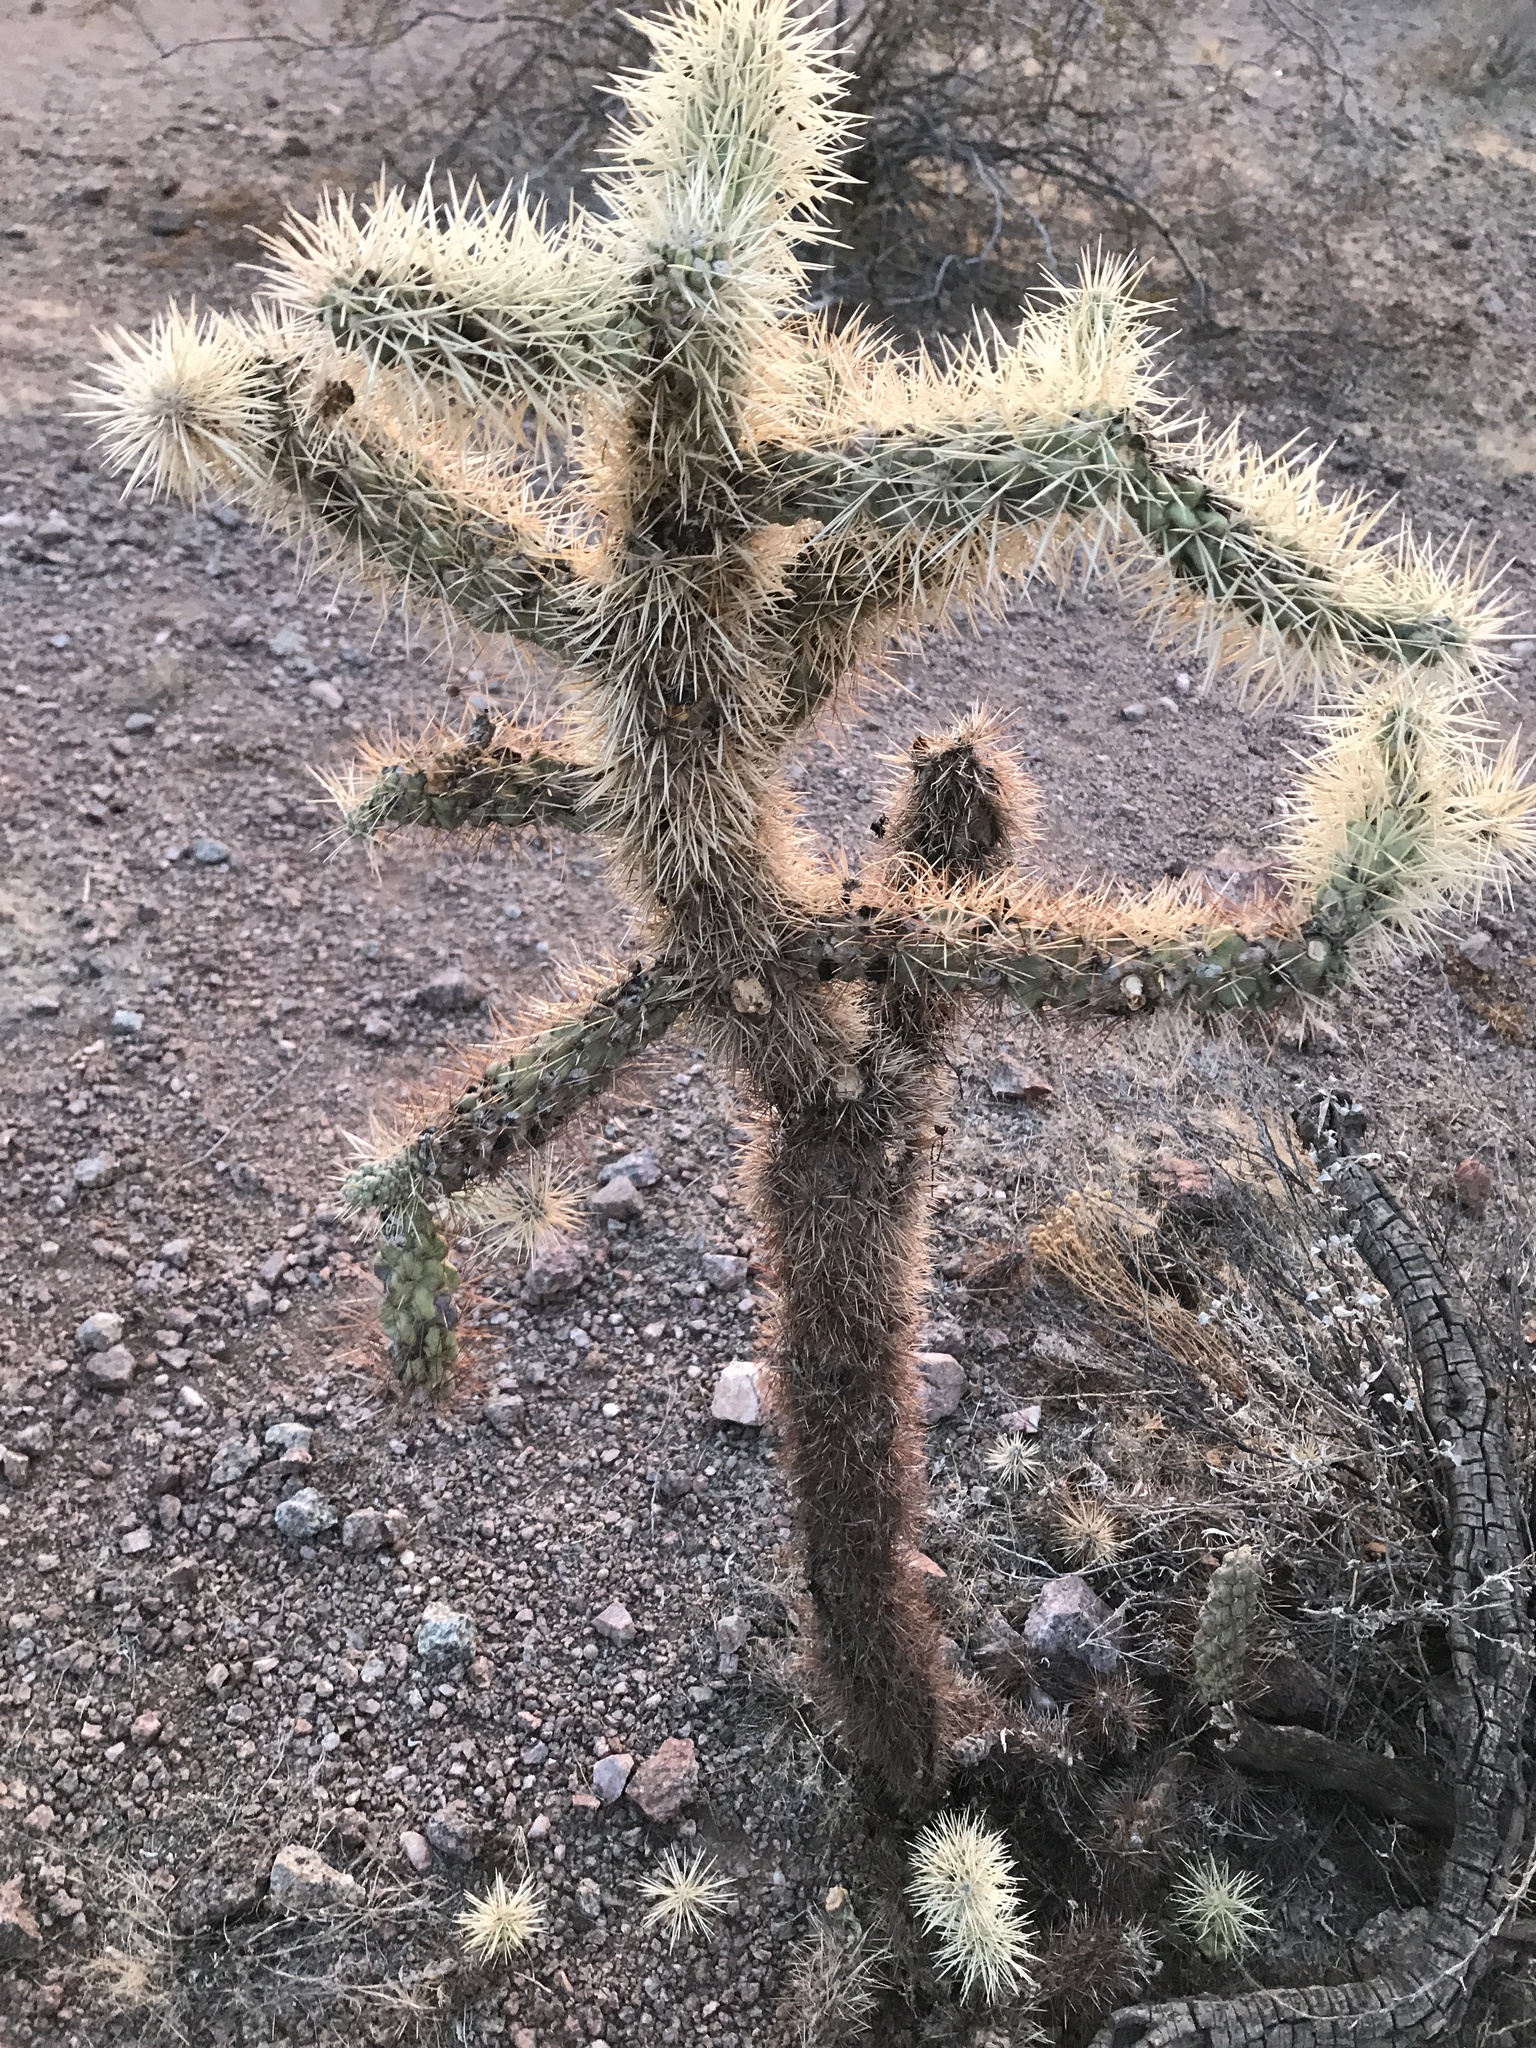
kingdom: Plantae
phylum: Tracheophyta
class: Magnoliopsida
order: Caryophyllales
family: Cactaceae
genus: Cylindropuntia
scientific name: Cylindropuntia fulgida
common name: Jumping cholla
